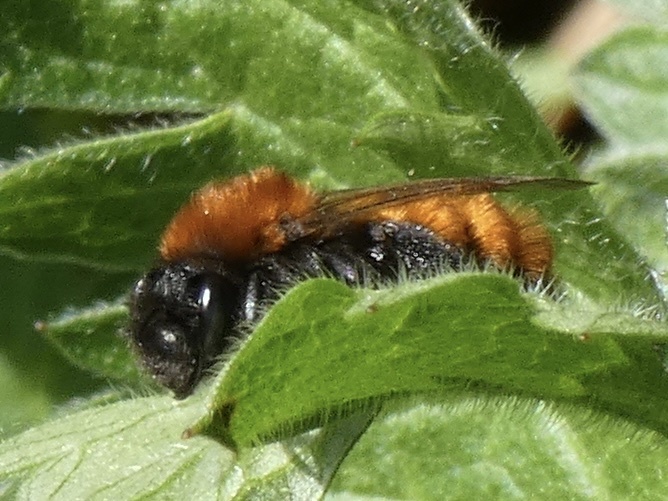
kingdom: Animalia
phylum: Arthropoda
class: Insecta
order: Hymenoptera
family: Andrenidae
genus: Andrena
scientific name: Andrena fulva
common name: Tawny mining bee
